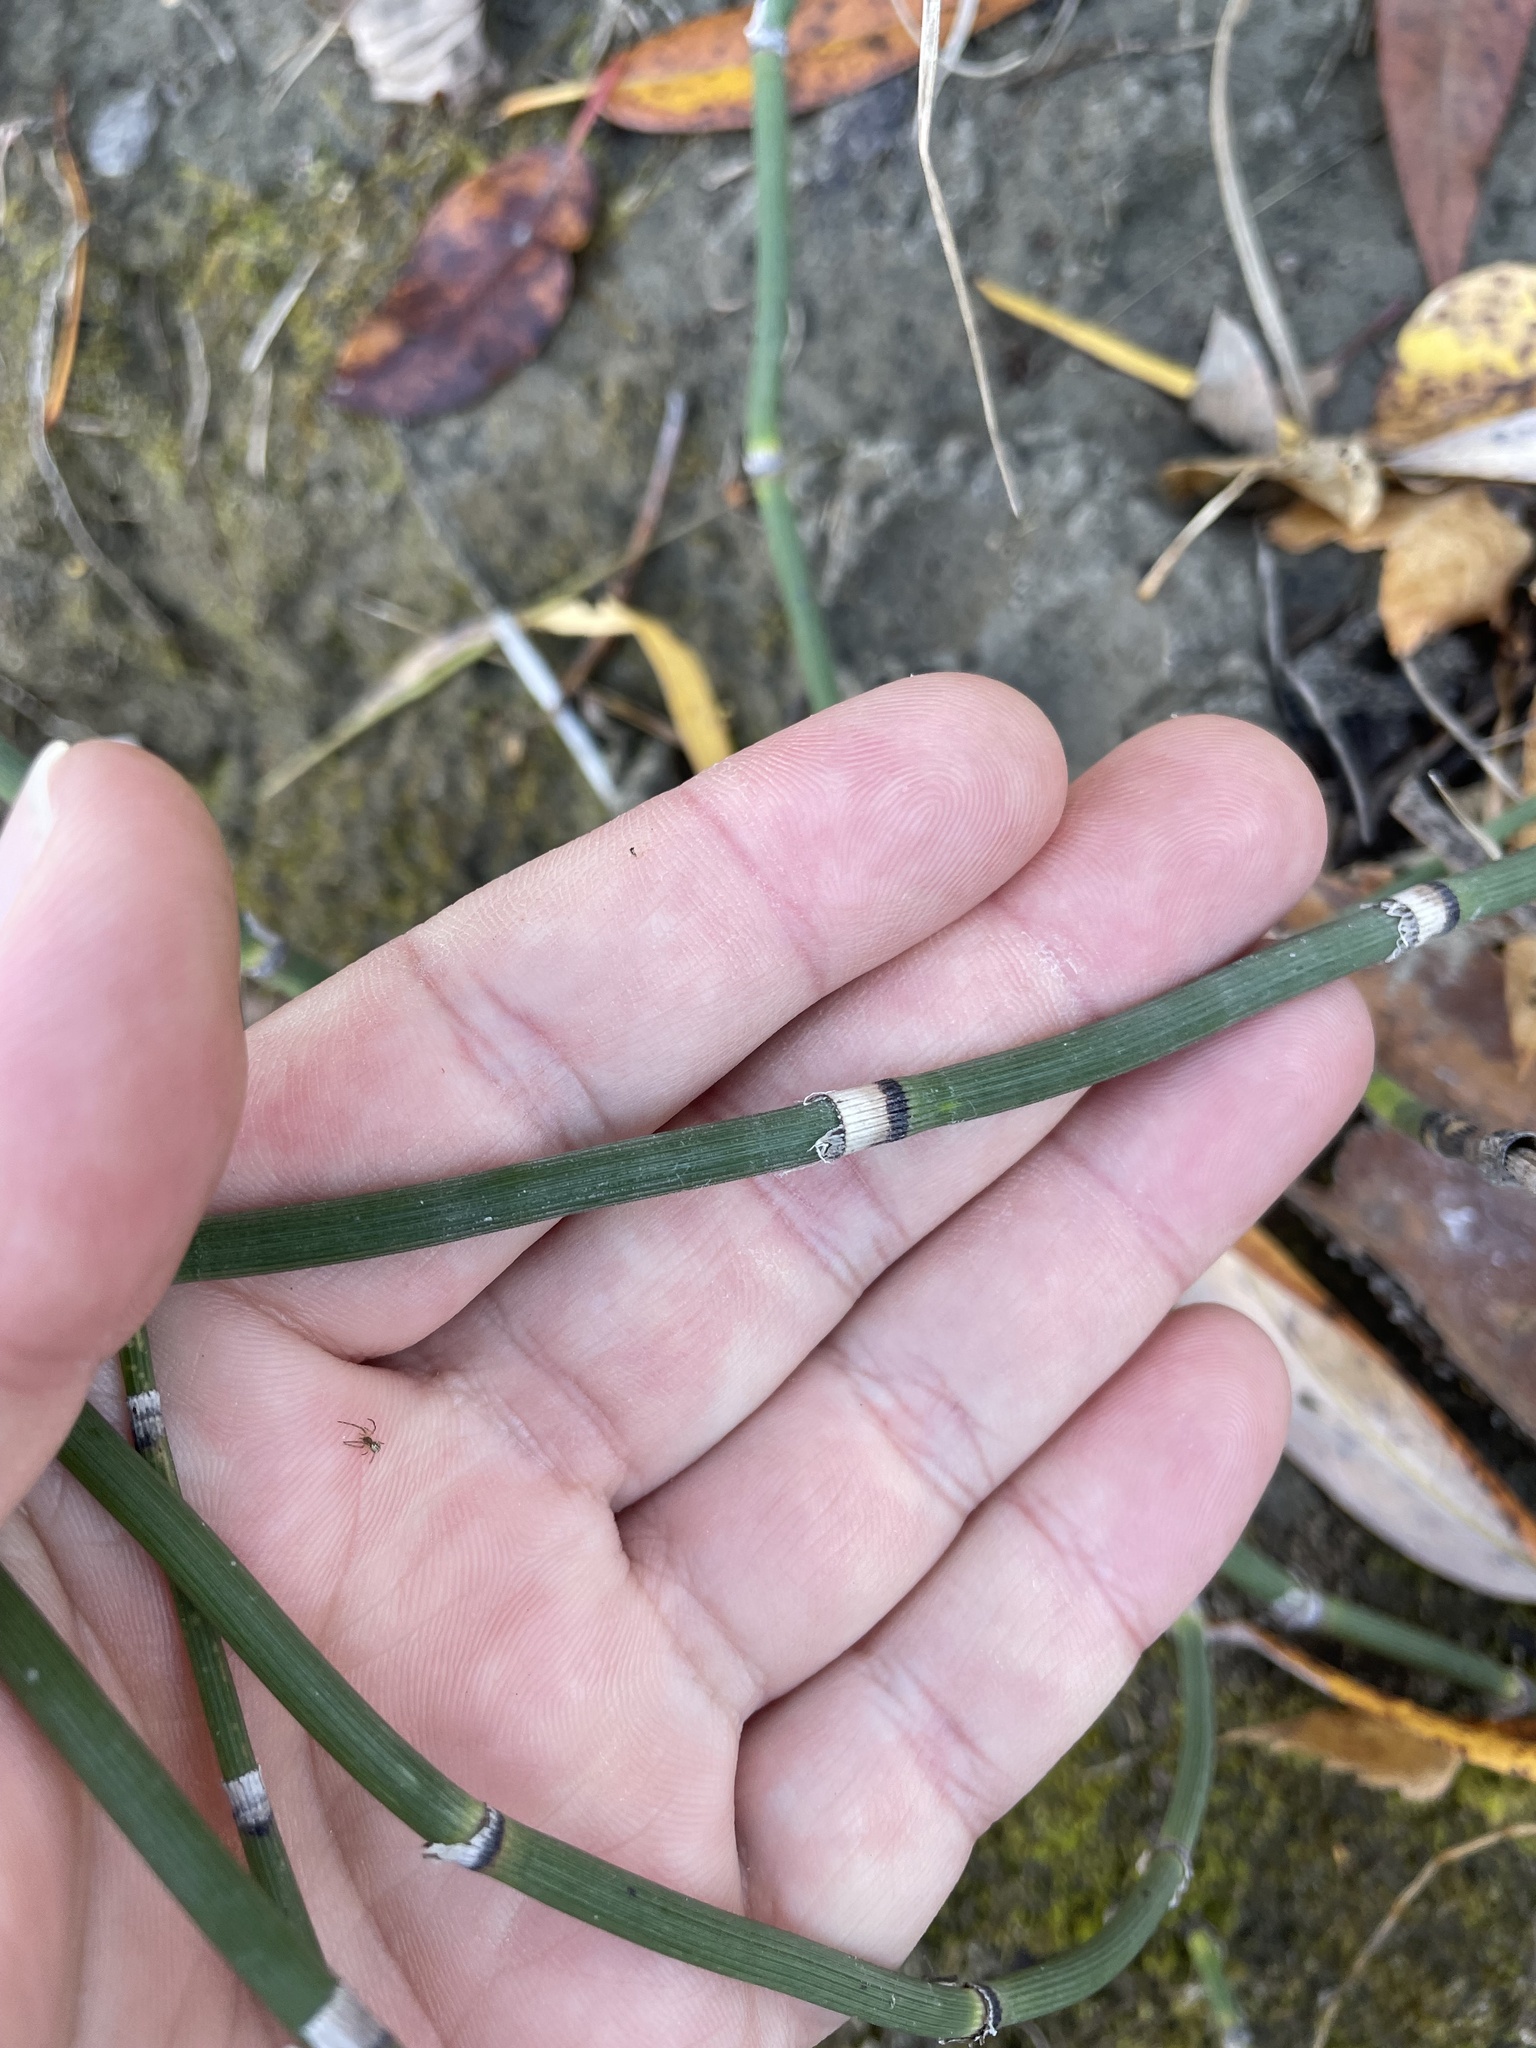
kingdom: Plantae
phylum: Tracheophyta
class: Polypodiopsida
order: Equisetales
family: Equisetaceae
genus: Equisetum
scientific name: Equisetum hyemale
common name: Rough horsetail
